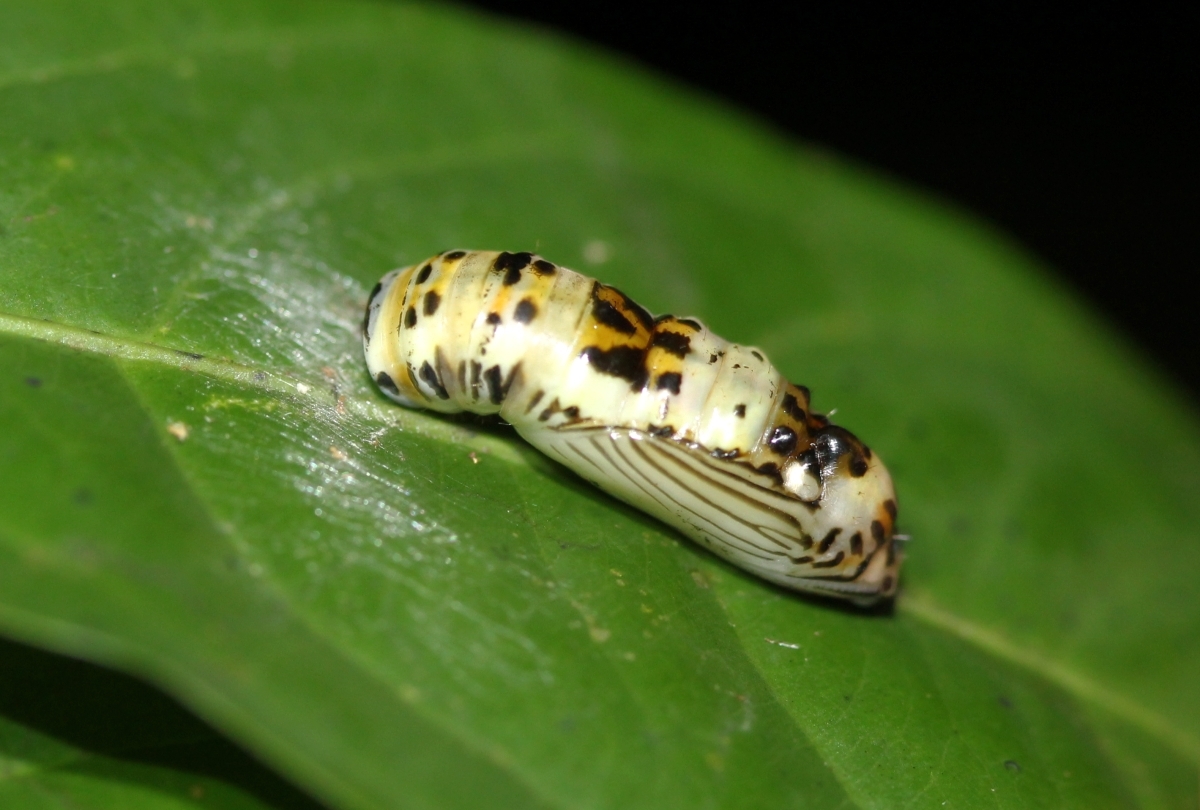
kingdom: Animalia
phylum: Arthropoda
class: Insecta
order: Lepidoptera
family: Nymphalidae
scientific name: Nymphalidae
